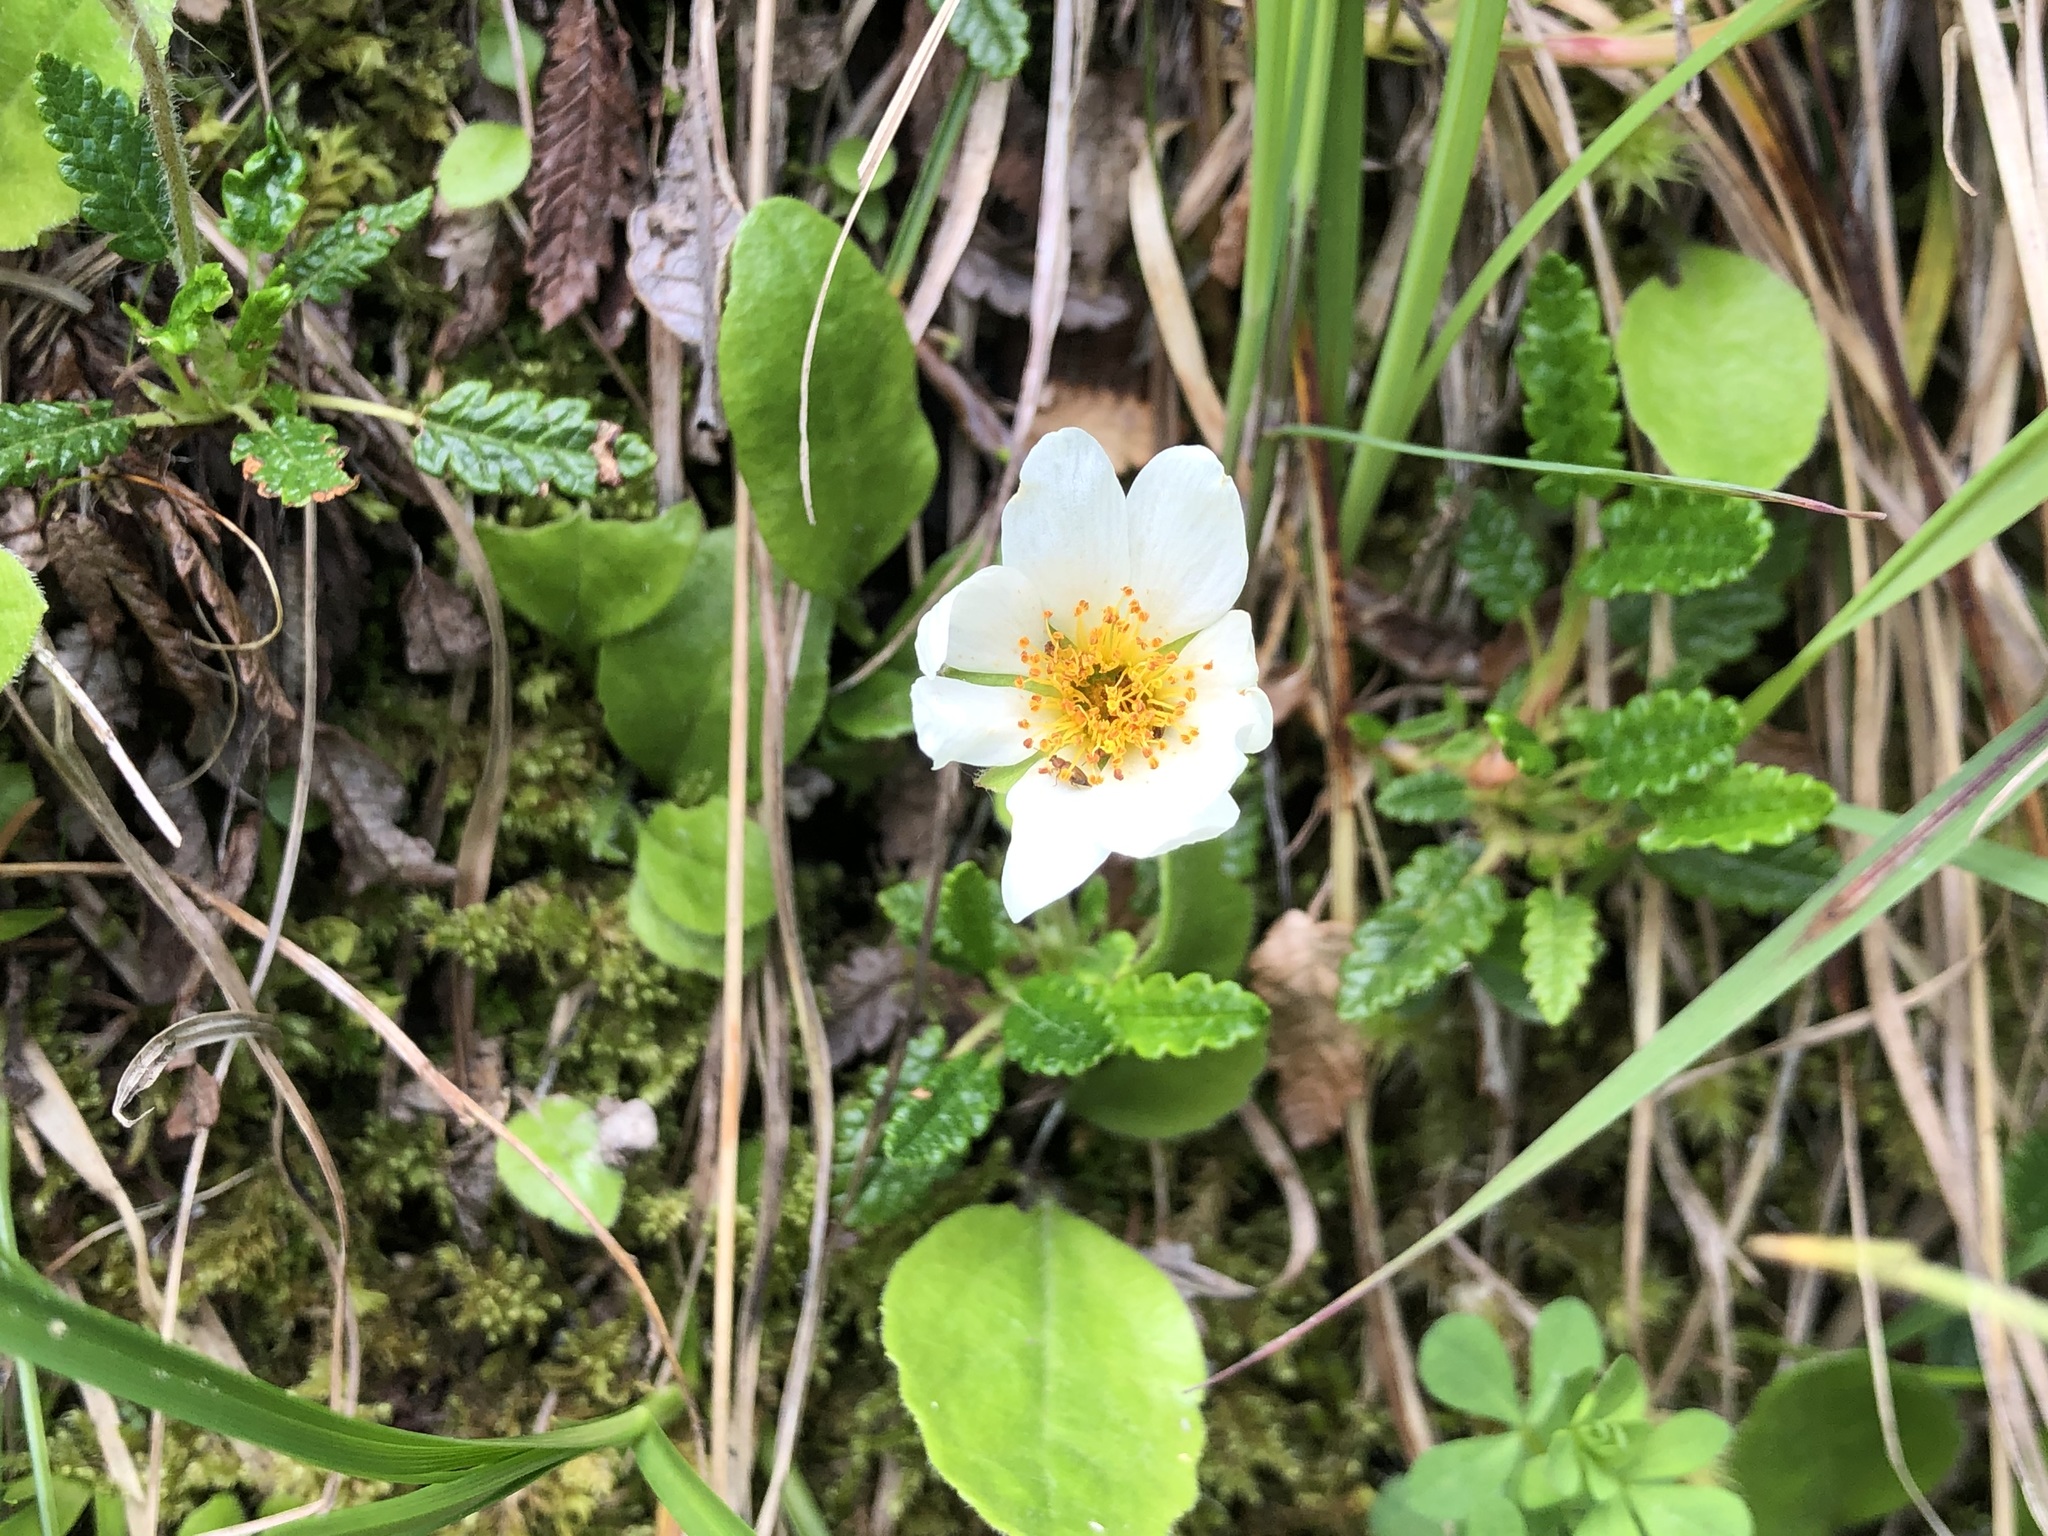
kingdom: Plantae
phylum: Tracheophyta
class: Magnoliopsida
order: Rosales
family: Rosaceae
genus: Dryas
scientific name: Dryas octopetala
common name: Eight-petal mountain-avens
